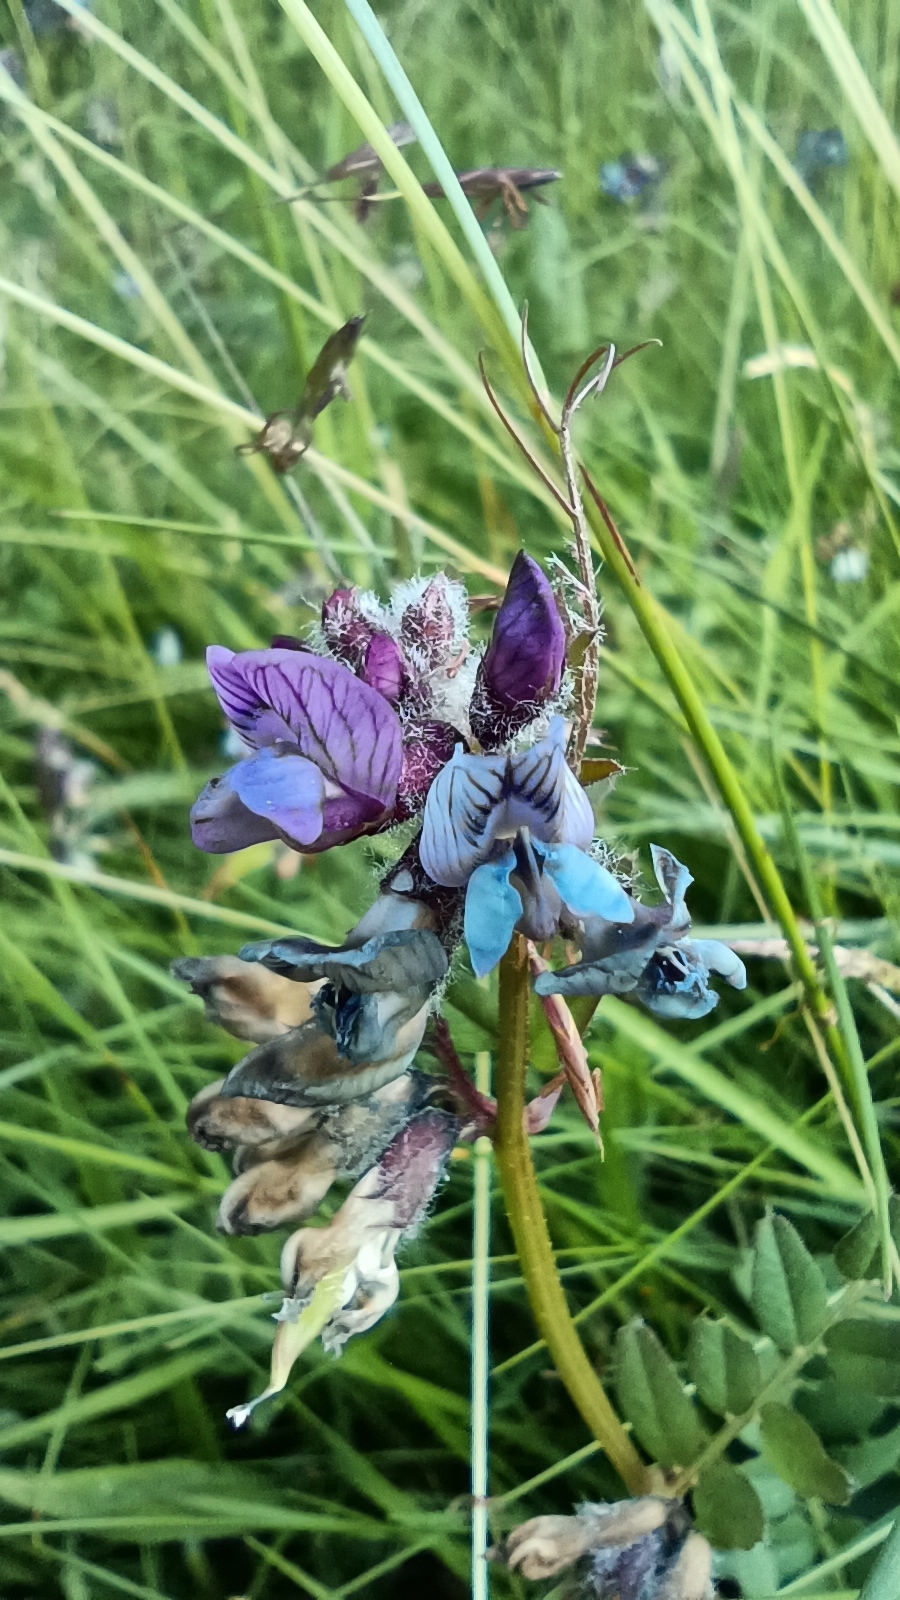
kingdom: Plantae
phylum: Tracheophyta
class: Magnoliopsida
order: Fabales
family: Fabaceae
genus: Vicia
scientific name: Vicia sepium
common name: Bush vetch
